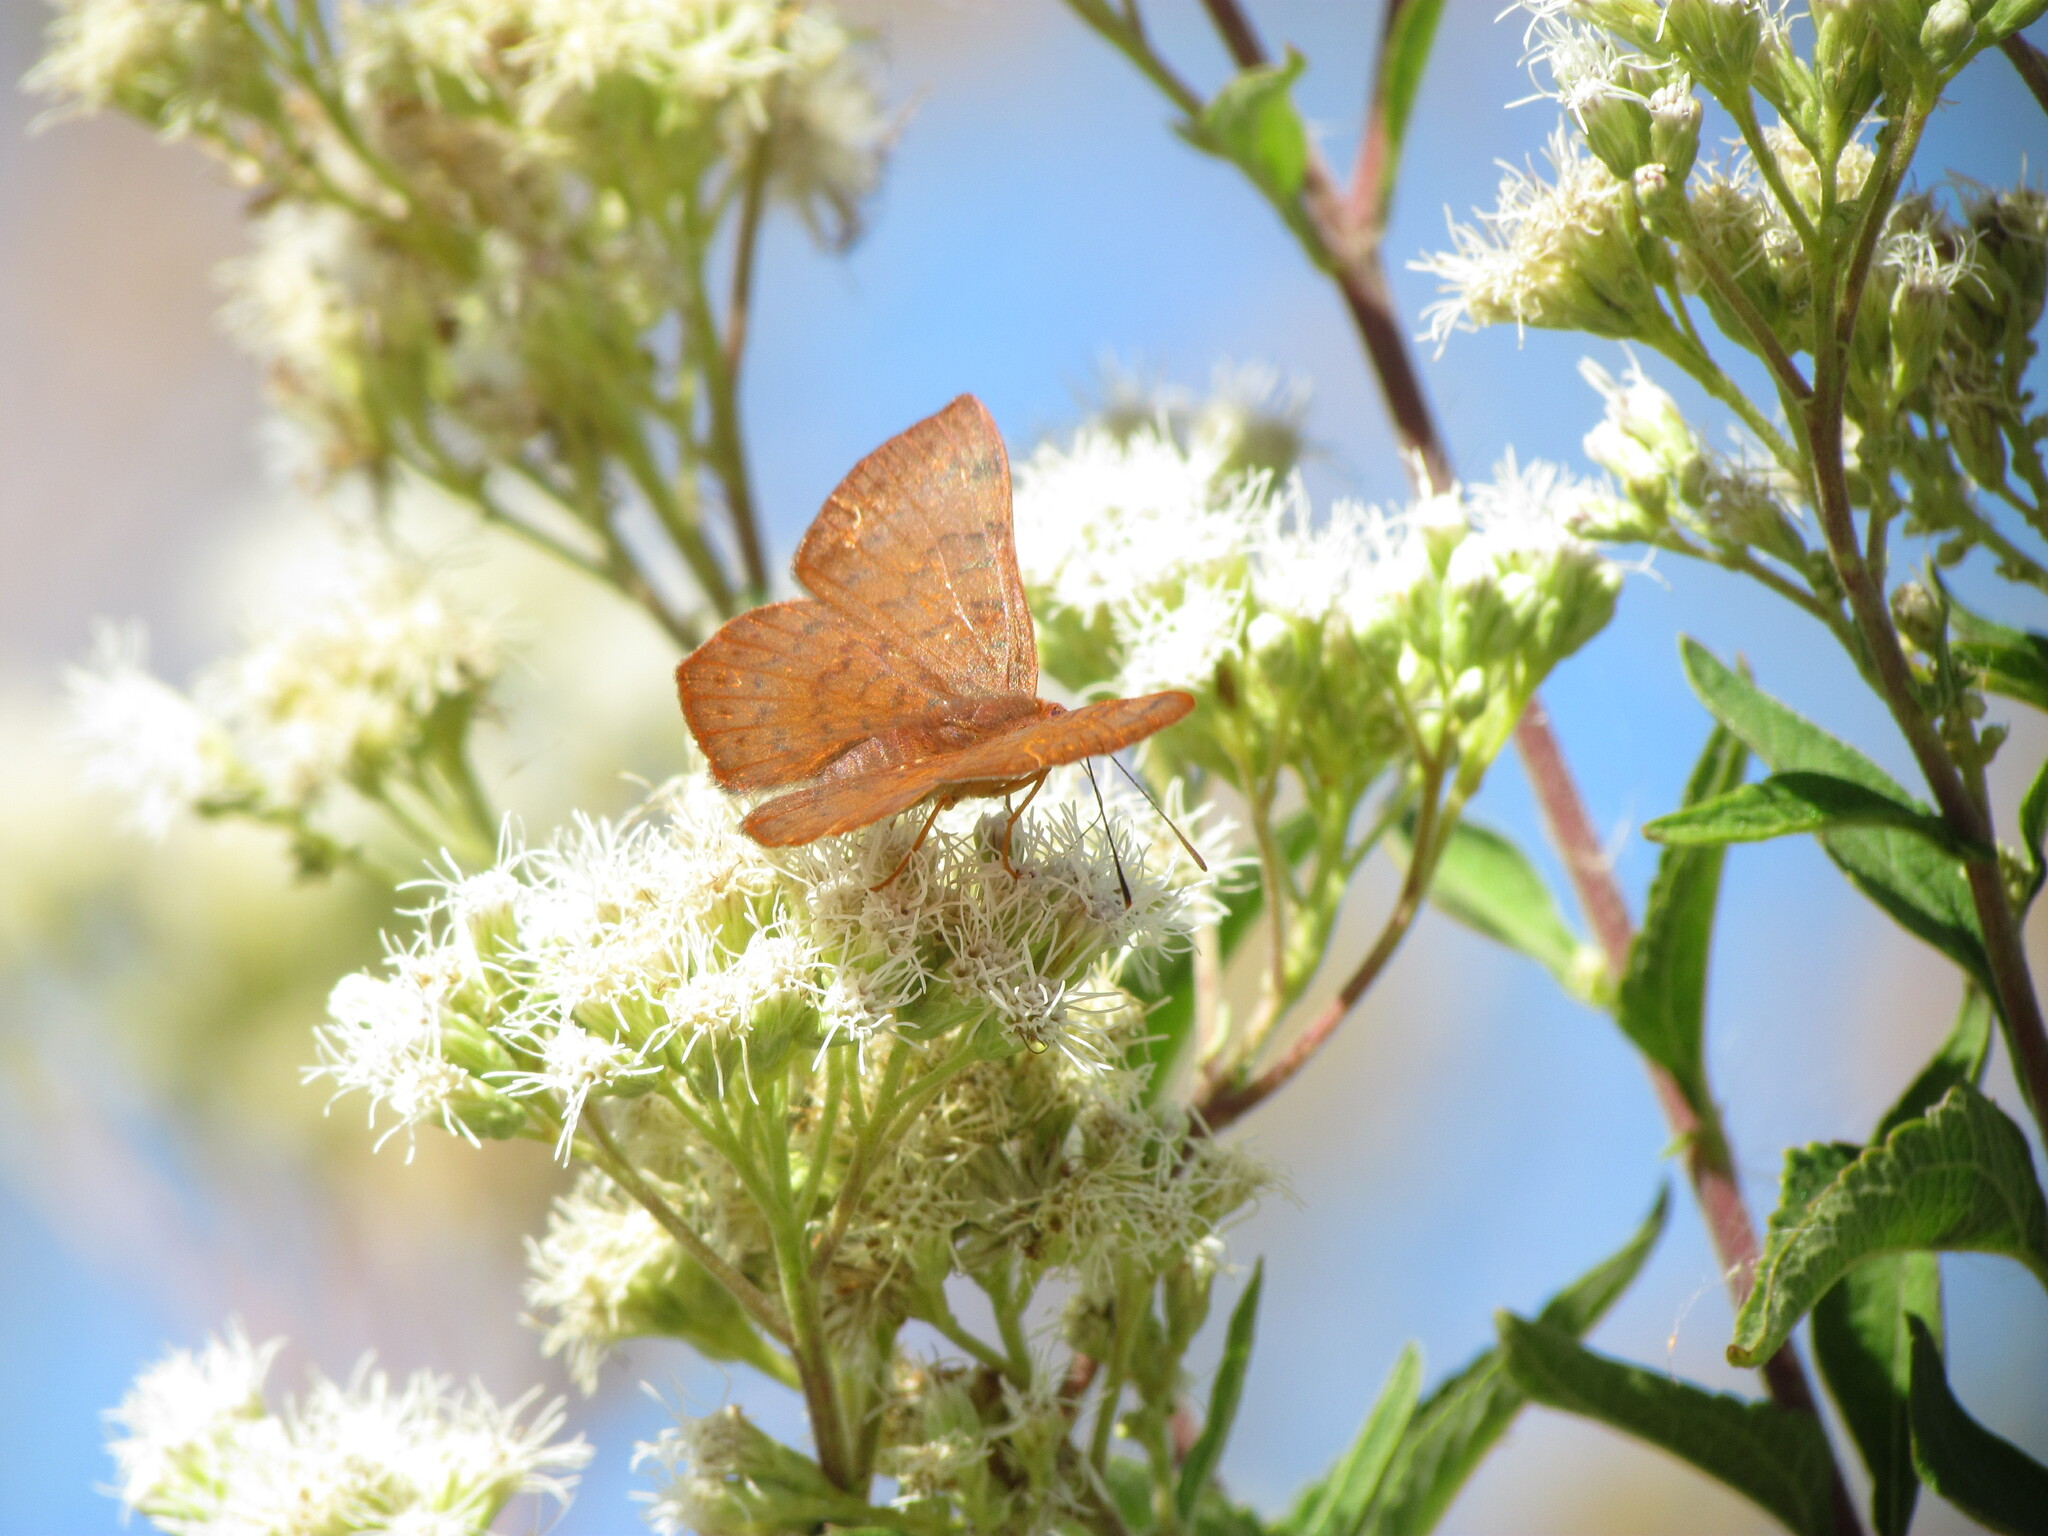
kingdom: Animalia
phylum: Arthropoda
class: Insecta
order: Lepidoptera
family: Lycaenidae
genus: Emesis
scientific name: Emesis russula
